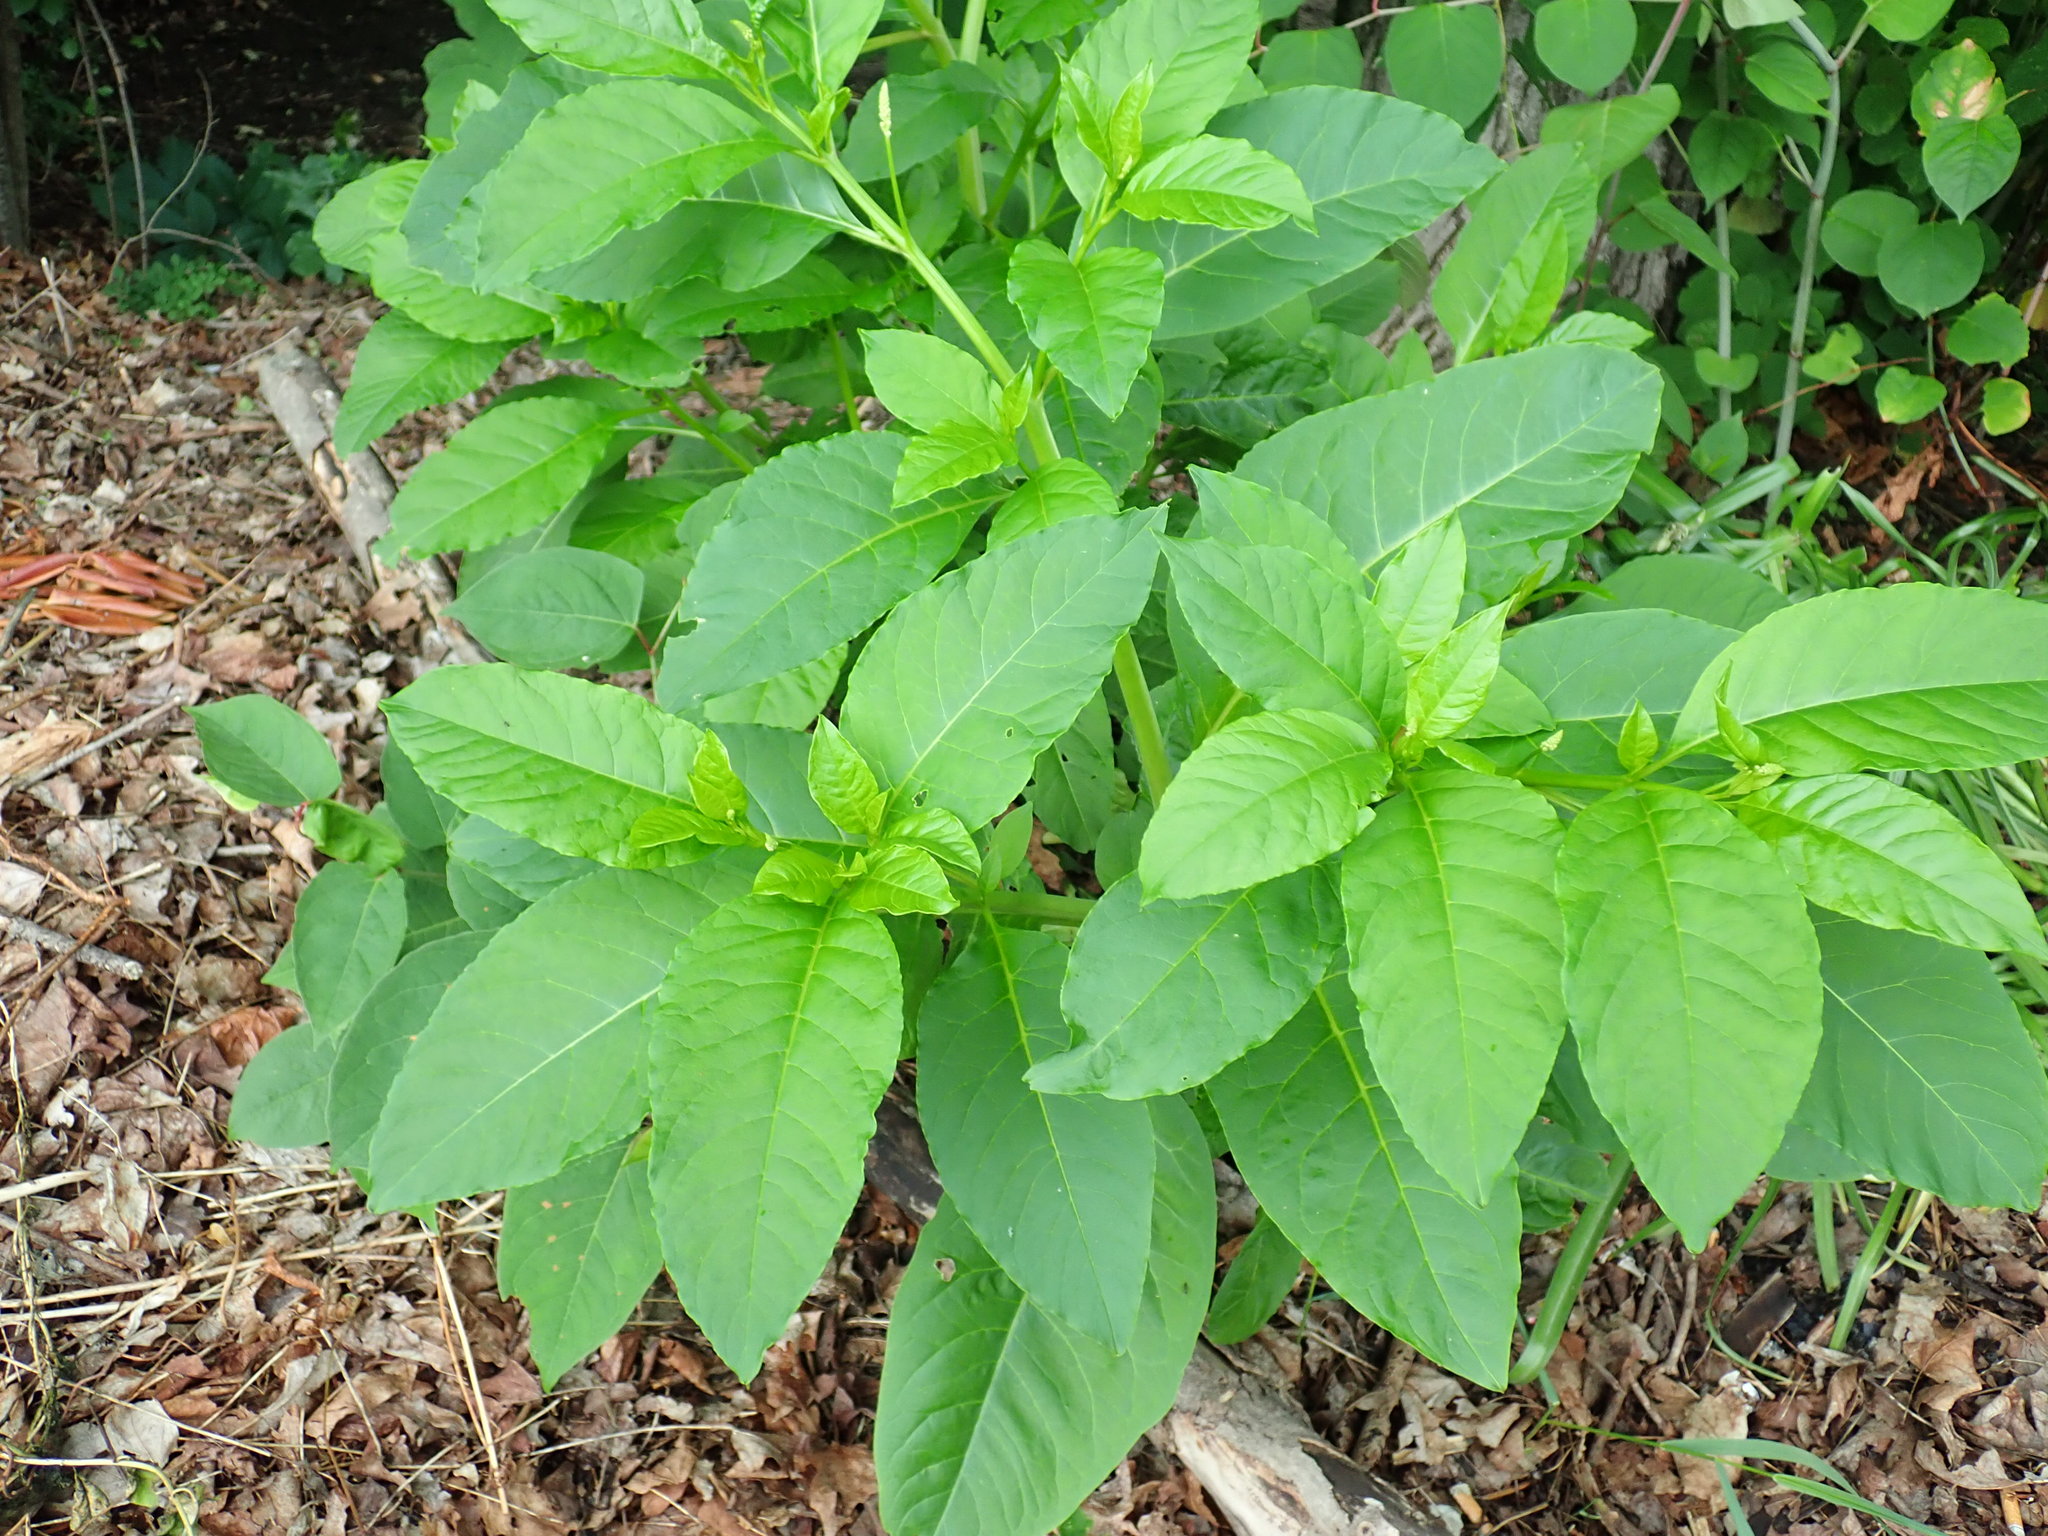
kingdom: Plantae
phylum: Tracheophyta
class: Magnoliopsida
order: Caryophyllales
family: Phytolaccaceae
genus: Phytolacca
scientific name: Phytolacca americana
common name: American pokeweed
